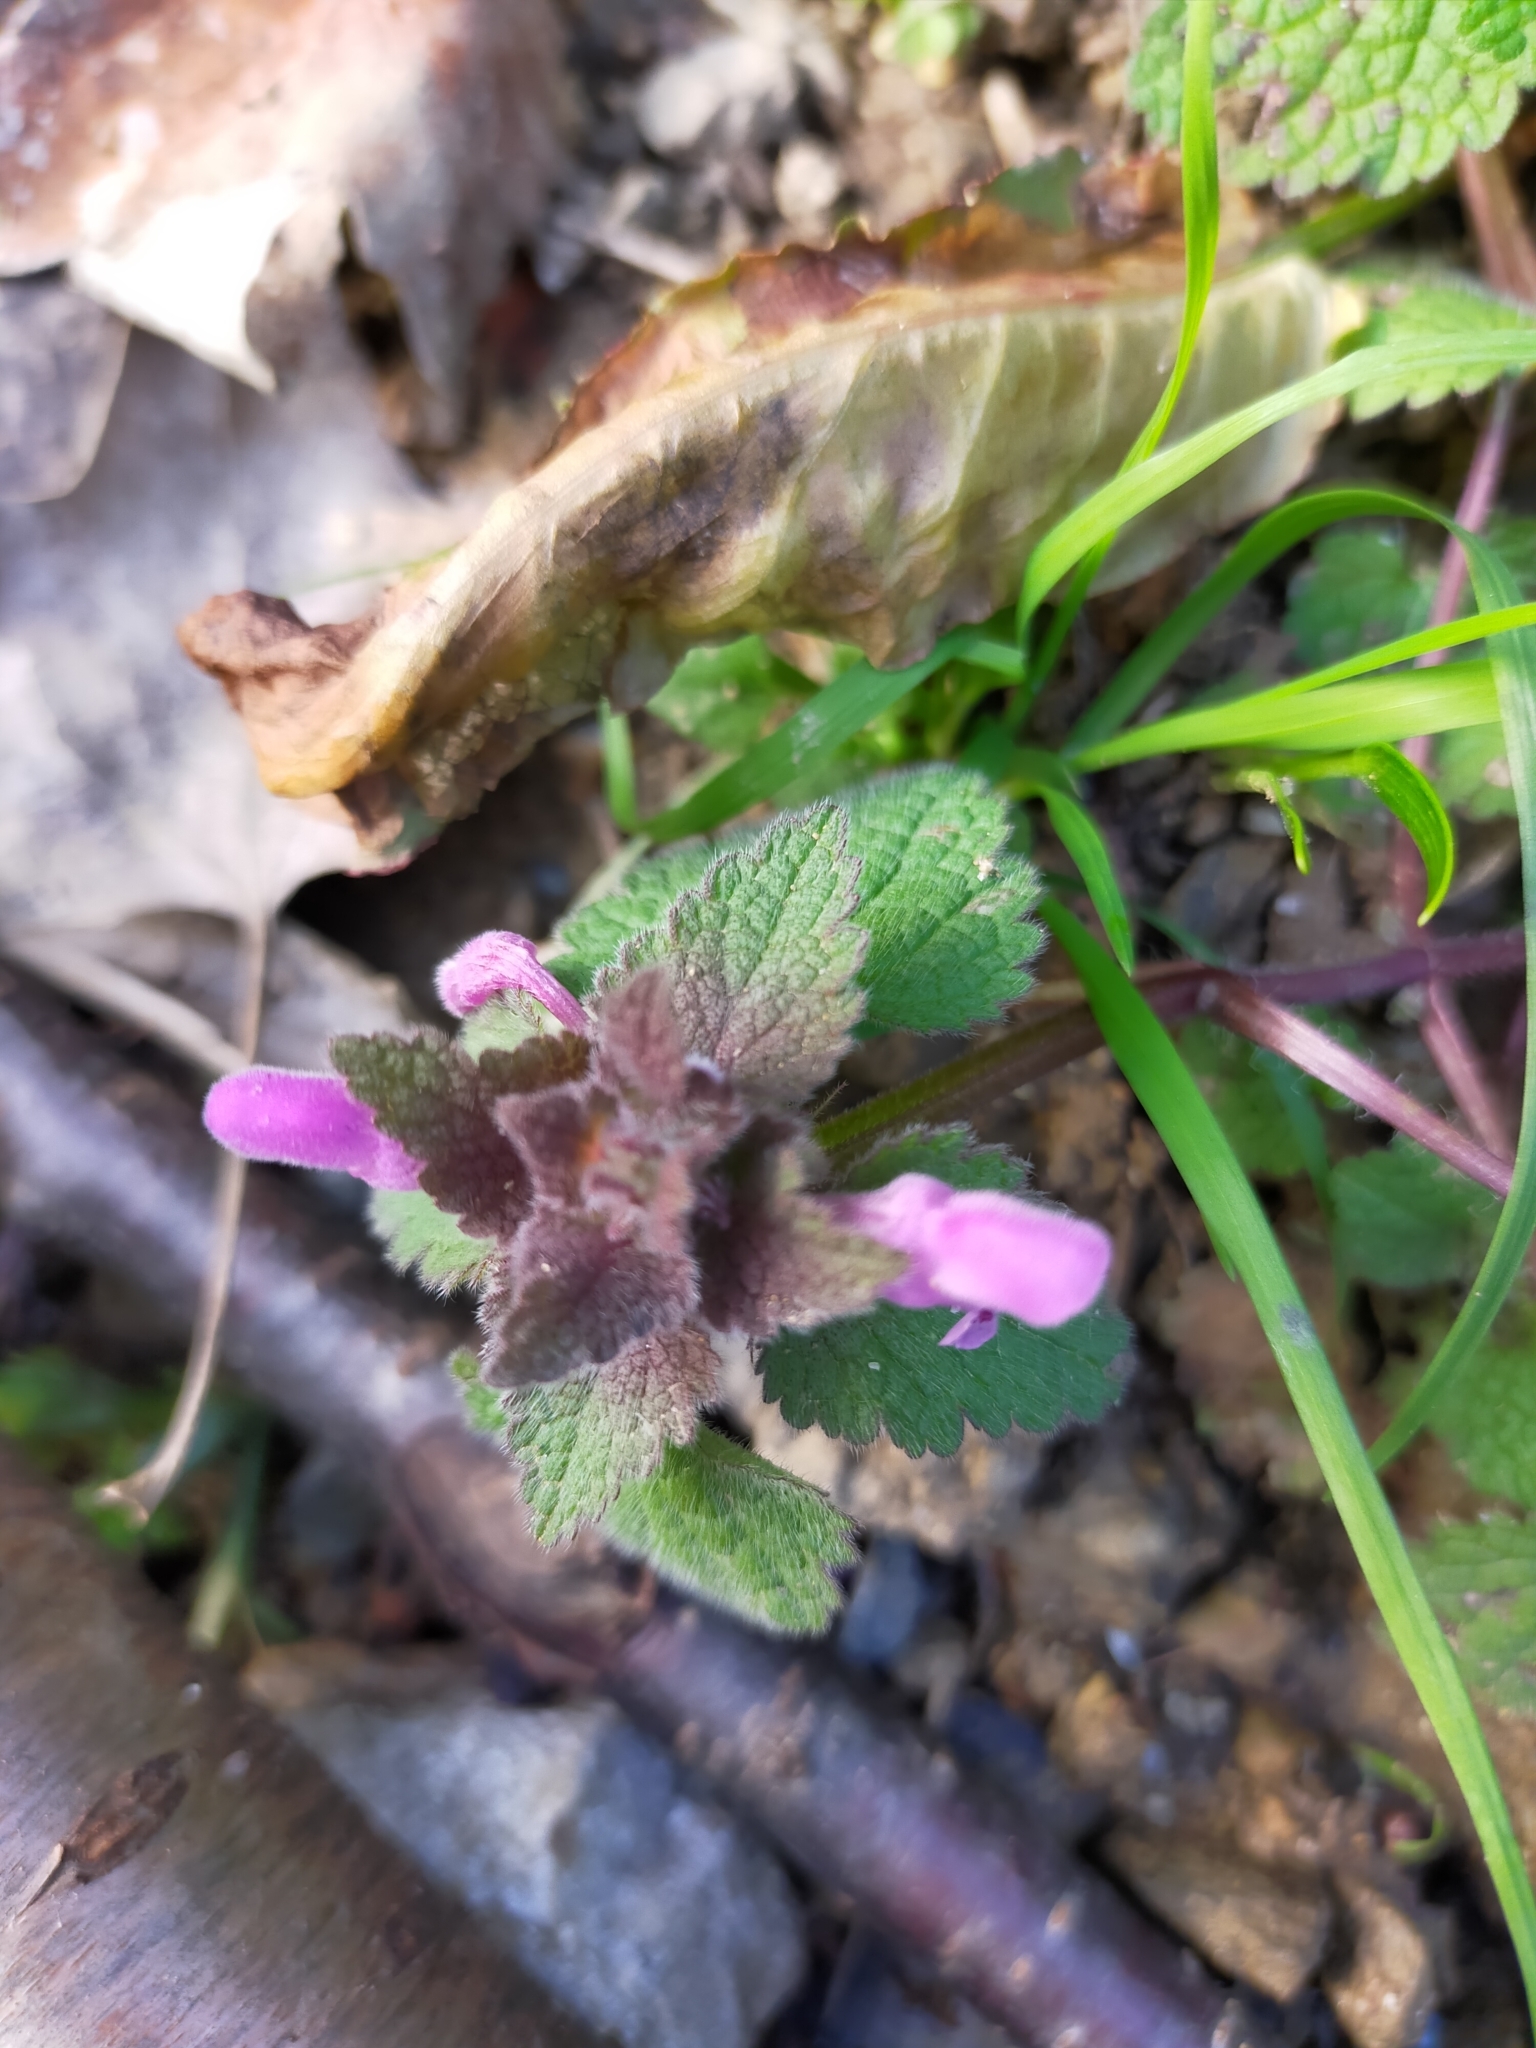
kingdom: Plantae
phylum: Tracheophyta
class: Magnoliopsida
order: Lamiales
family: Lamiaceae
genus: Lamium
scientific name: Lamium purpureum
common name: Red dead-nettle
